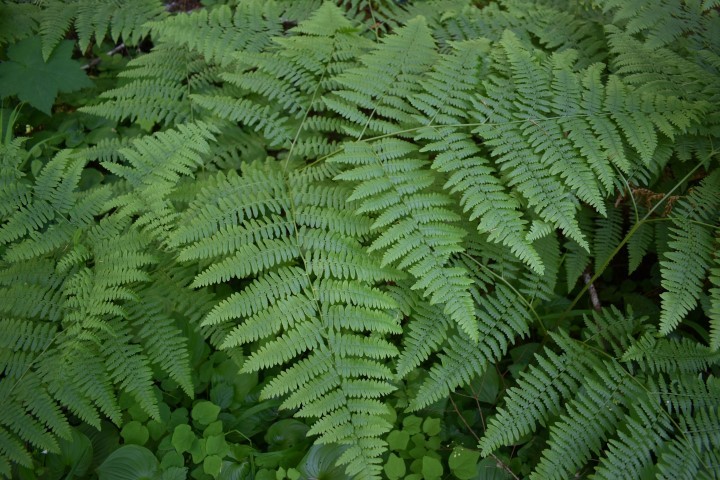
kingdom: Plantae
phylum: Tracheophyta
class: Polypodiopsida
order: Polypodiales
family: Dennstaedtiaceae
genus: Pteridium
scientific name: Pteridium aquilinum
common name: Bracken
